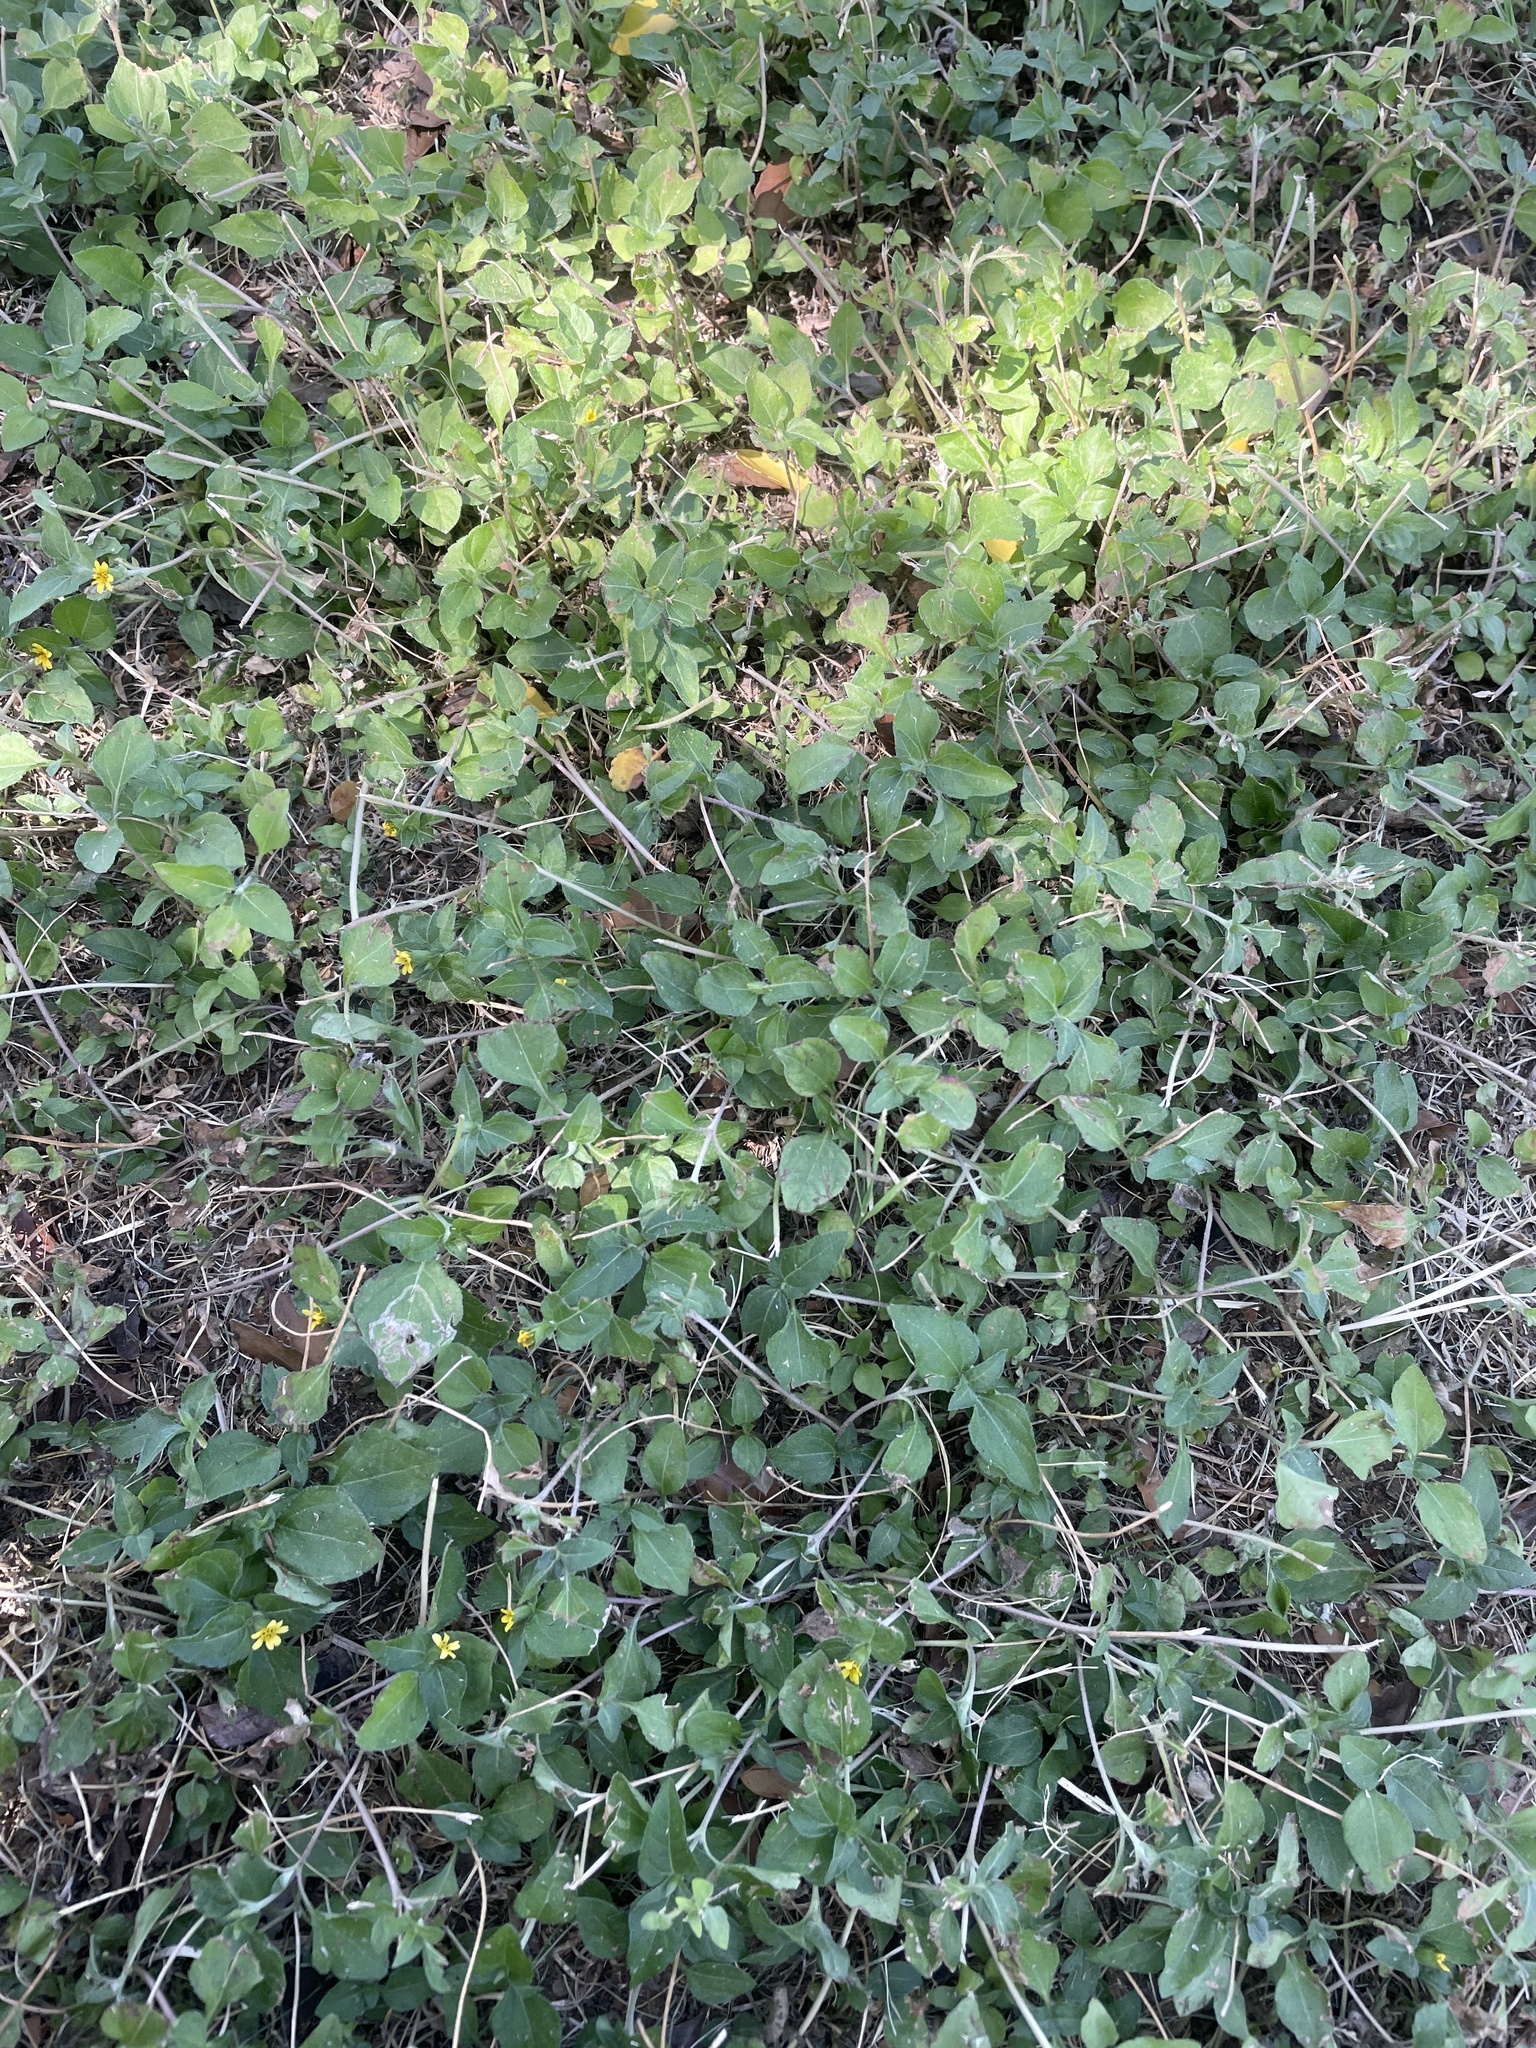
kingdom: Plantae
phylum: Tracheophyta
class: Magnoliopsida
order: Asterales
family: Asteraceae
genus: Calyptocarpus
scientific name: Calyptocarpus vialis
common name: Straggler daisy
